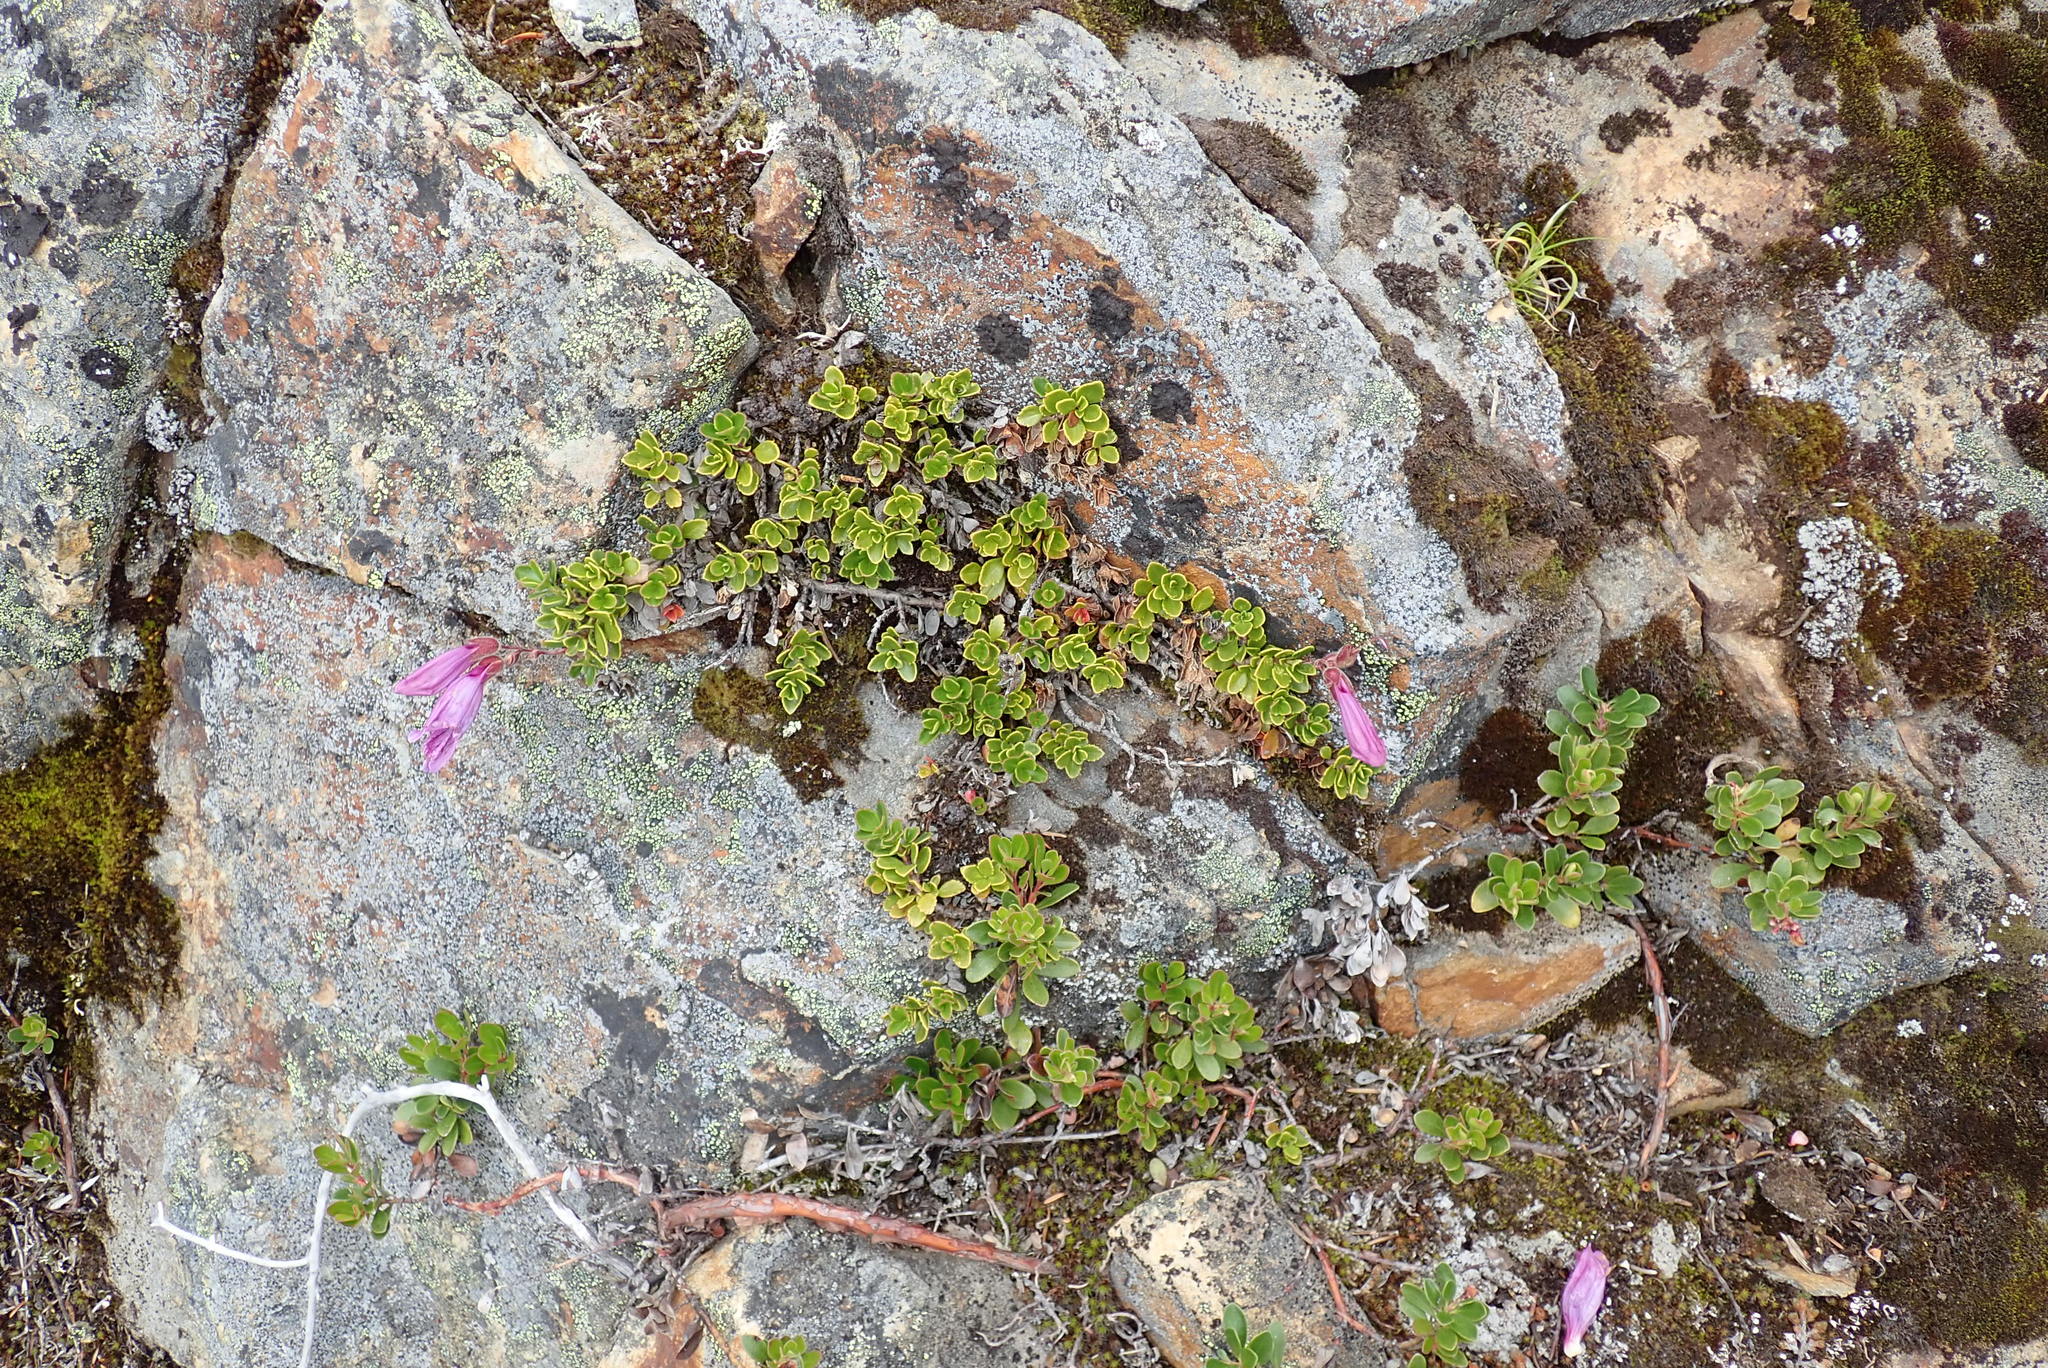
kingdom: Plantae
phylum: Tracheophyta
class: Magnoliopsida
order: Lamiales
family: Plantaginaceae
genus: Penstemon
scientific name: Penstemon davidsonii
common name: Davidson's penstemon
